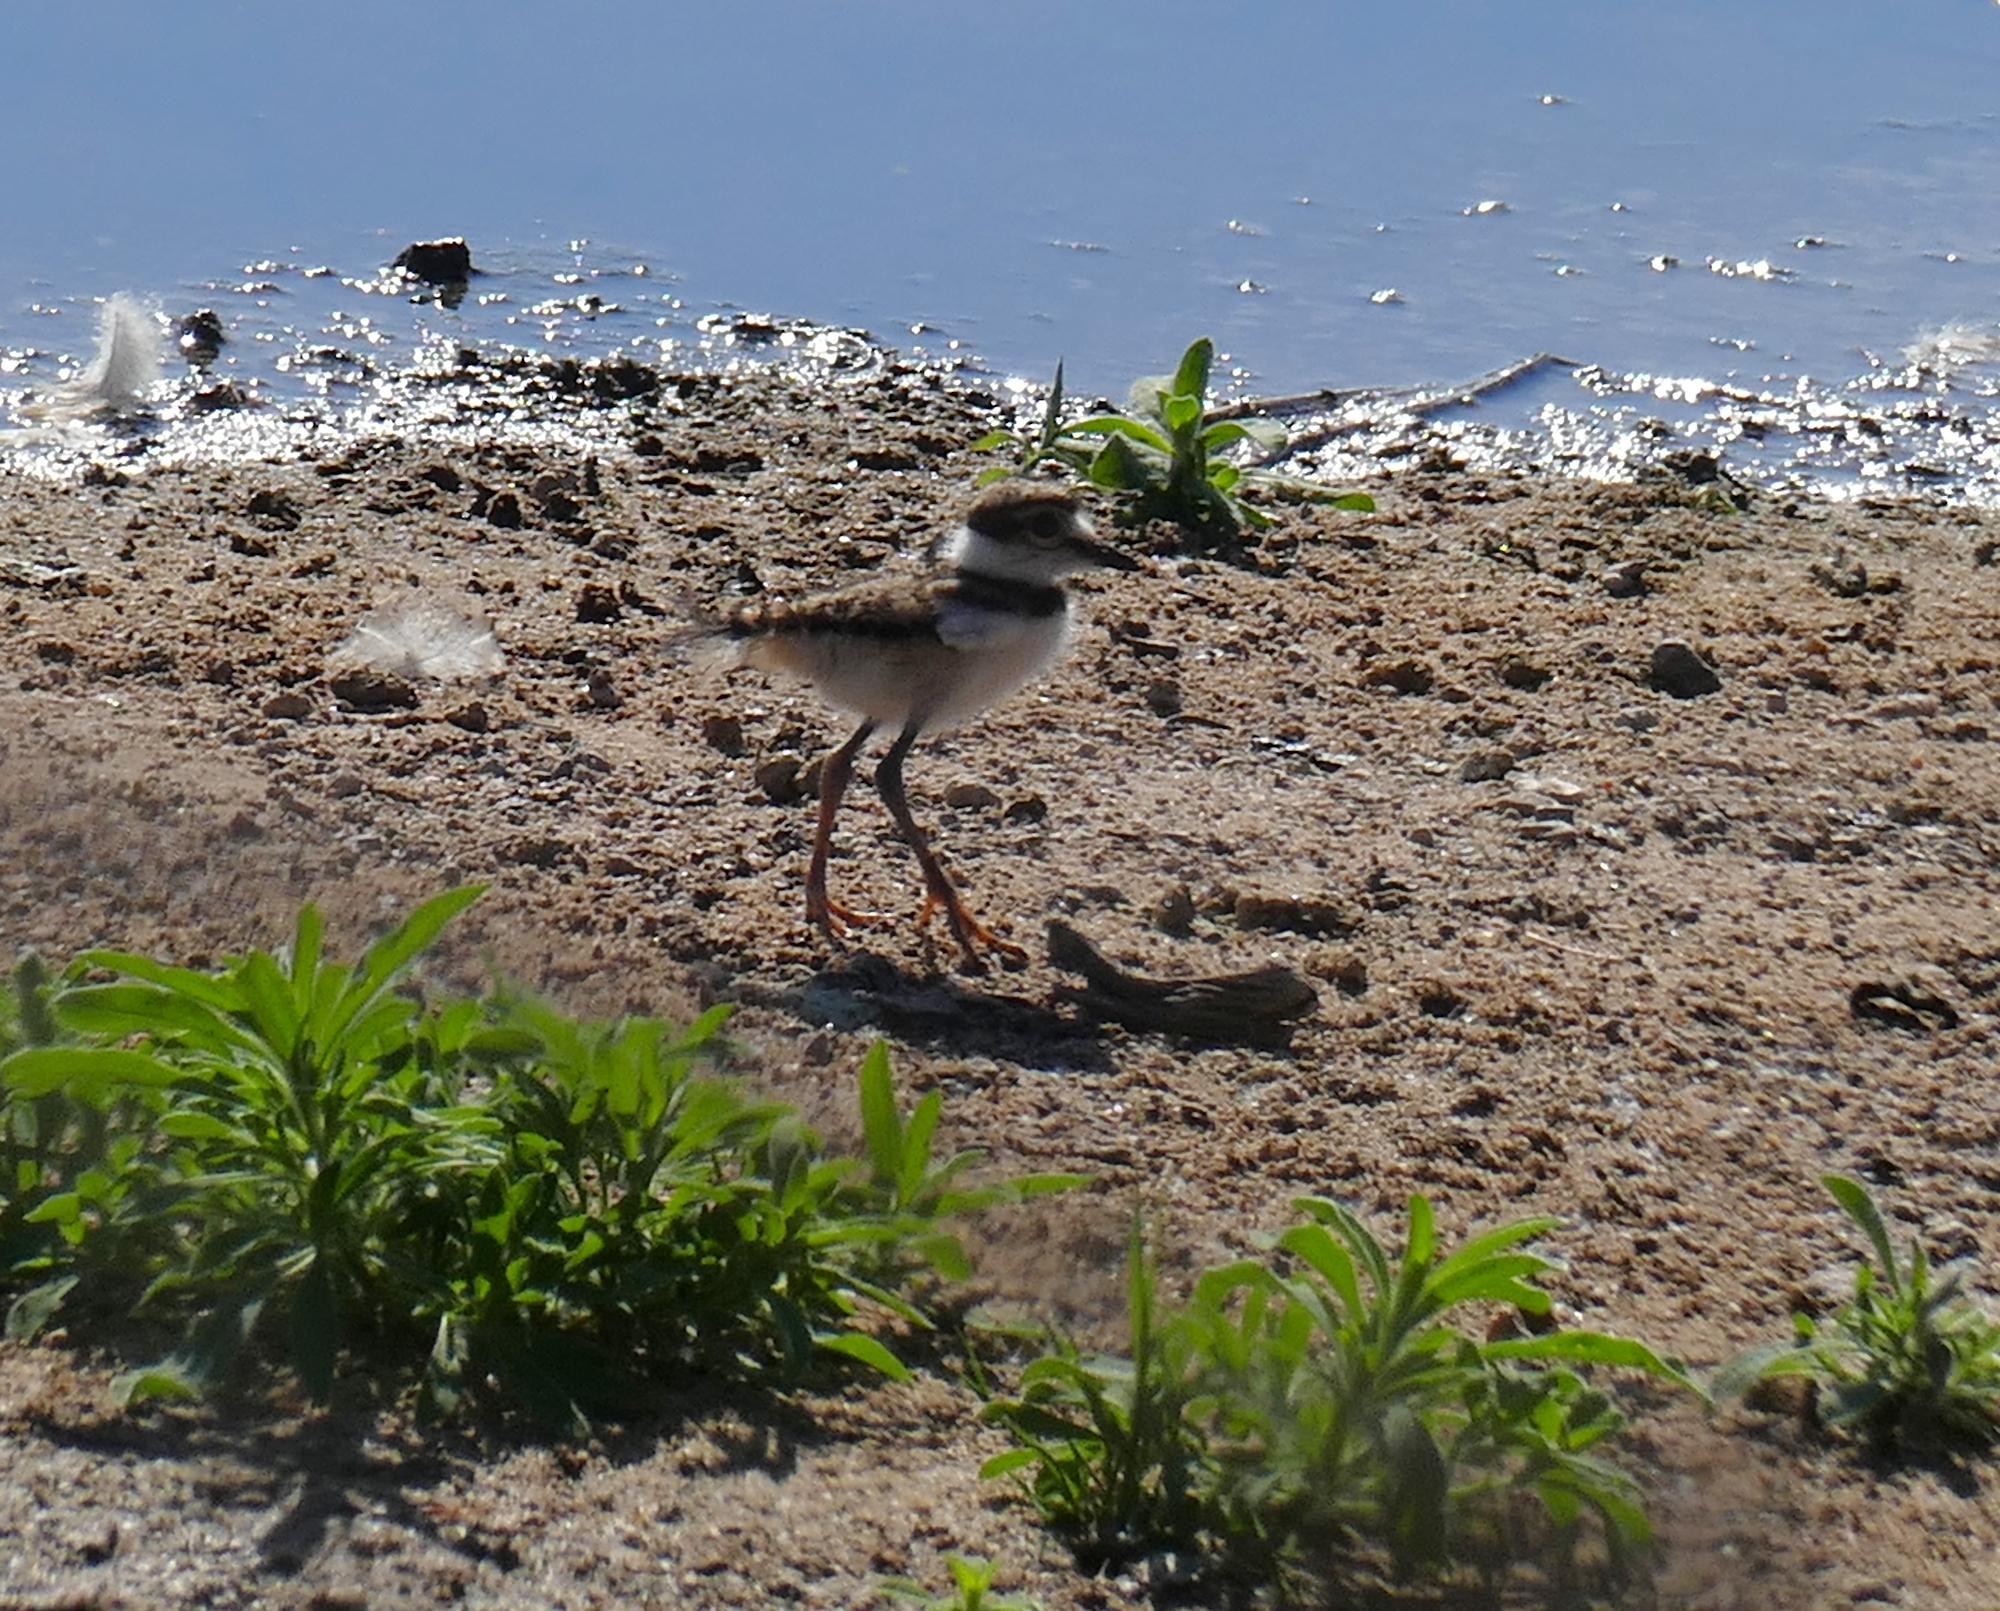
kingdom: Animalia
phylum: Chordata
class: Aves
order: Charadriiformes
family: Charadriidae
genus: Charadrius
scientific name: Charadrius vociferus
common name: Killdeer
